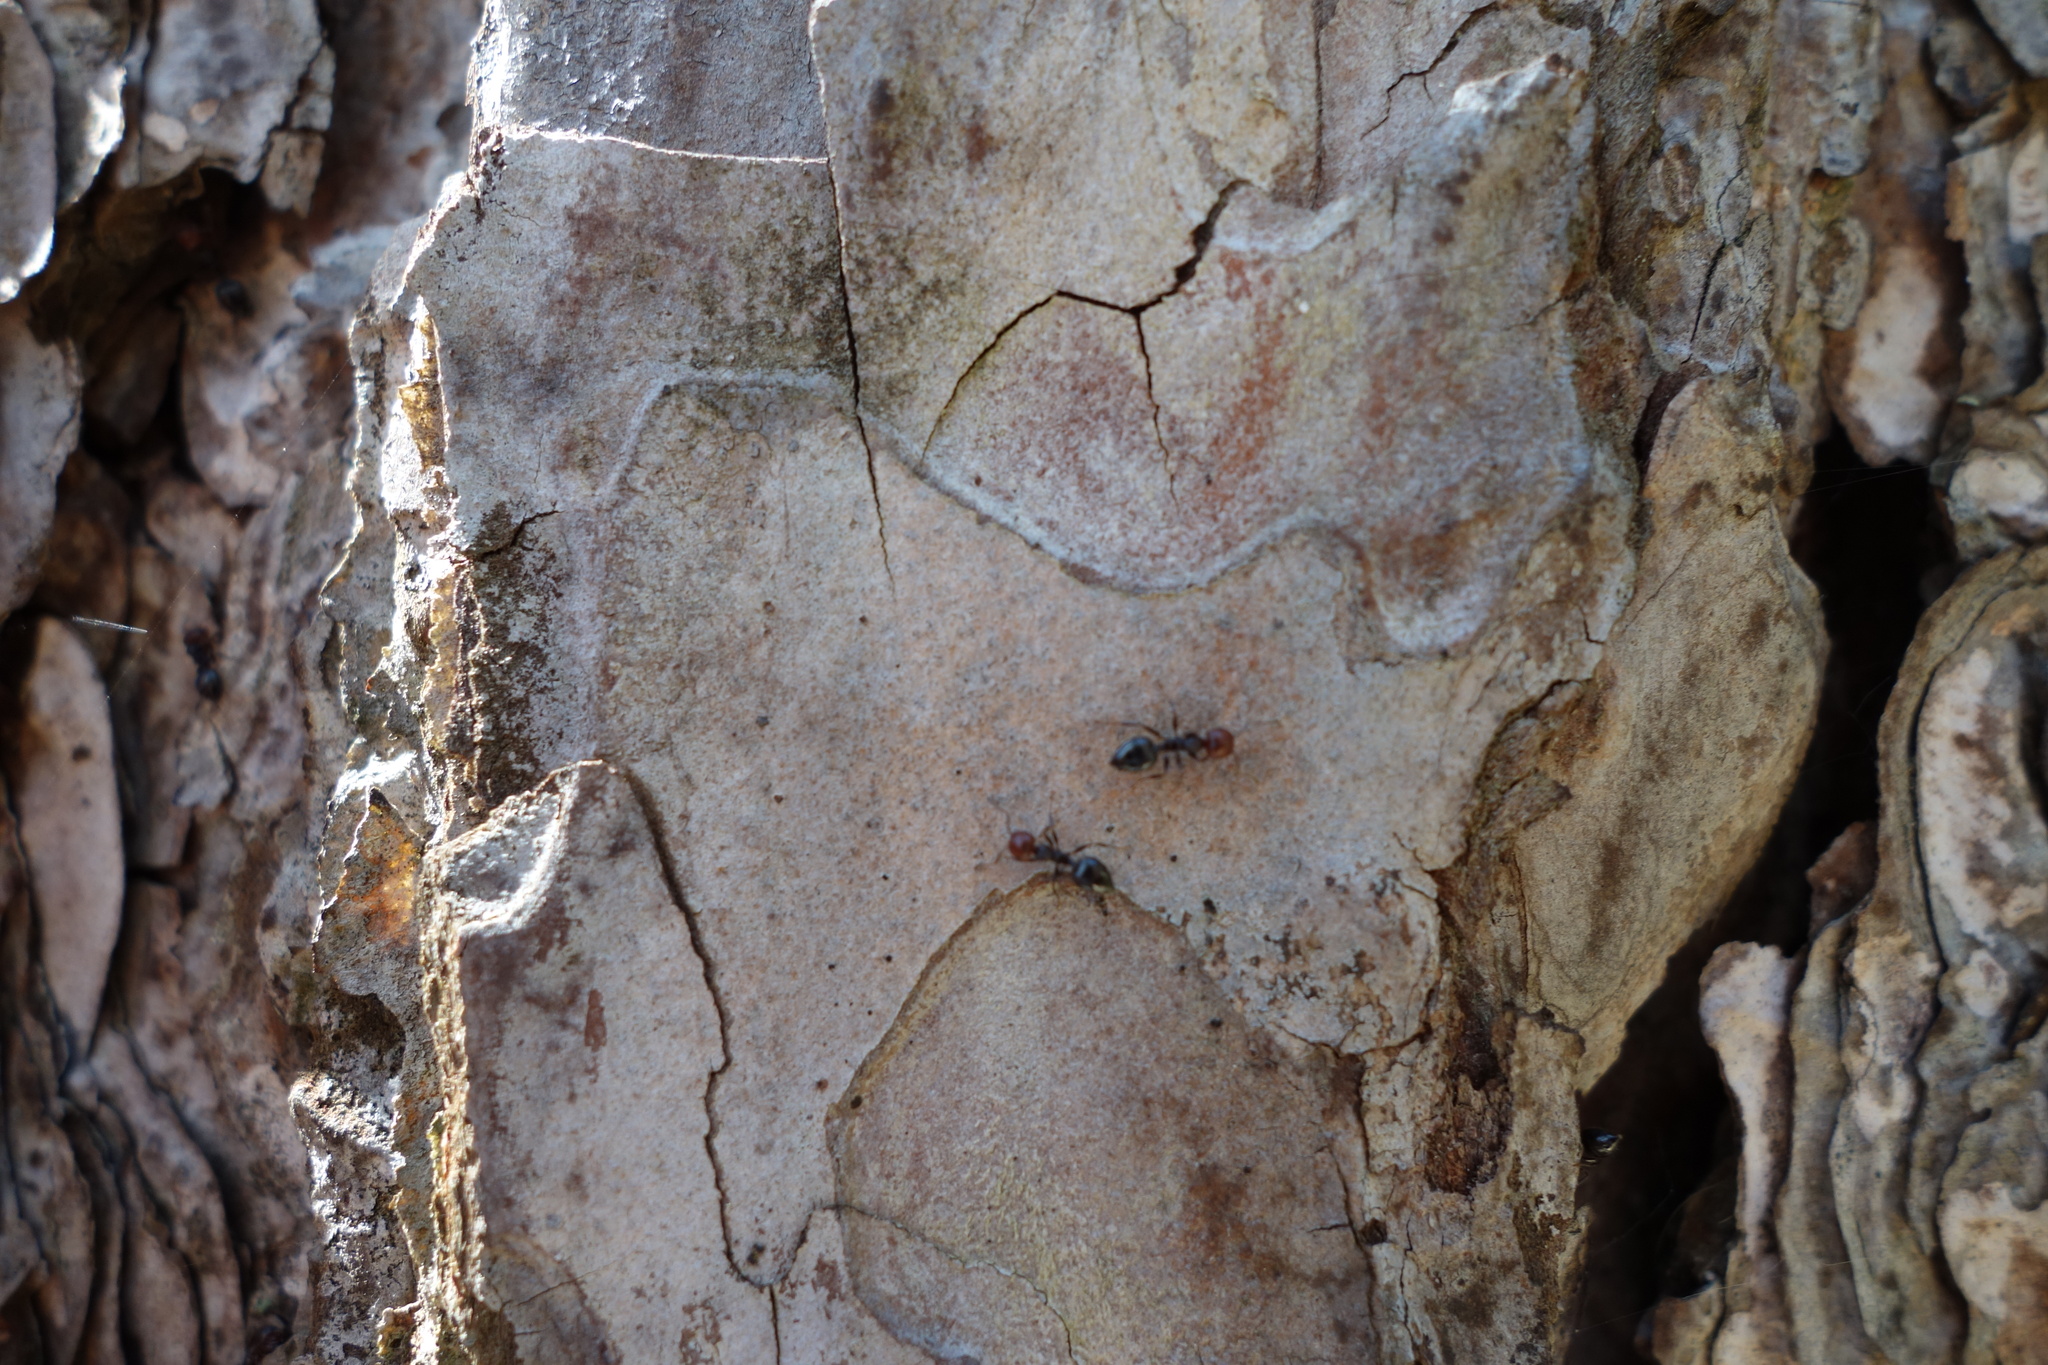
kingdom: Animalia
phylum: Arthropoda
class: Insecta
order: Hymenoptera
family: Formicidae
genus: Crematogaster
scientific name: Crematogaster scutellaris
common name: Fourmi du liège
